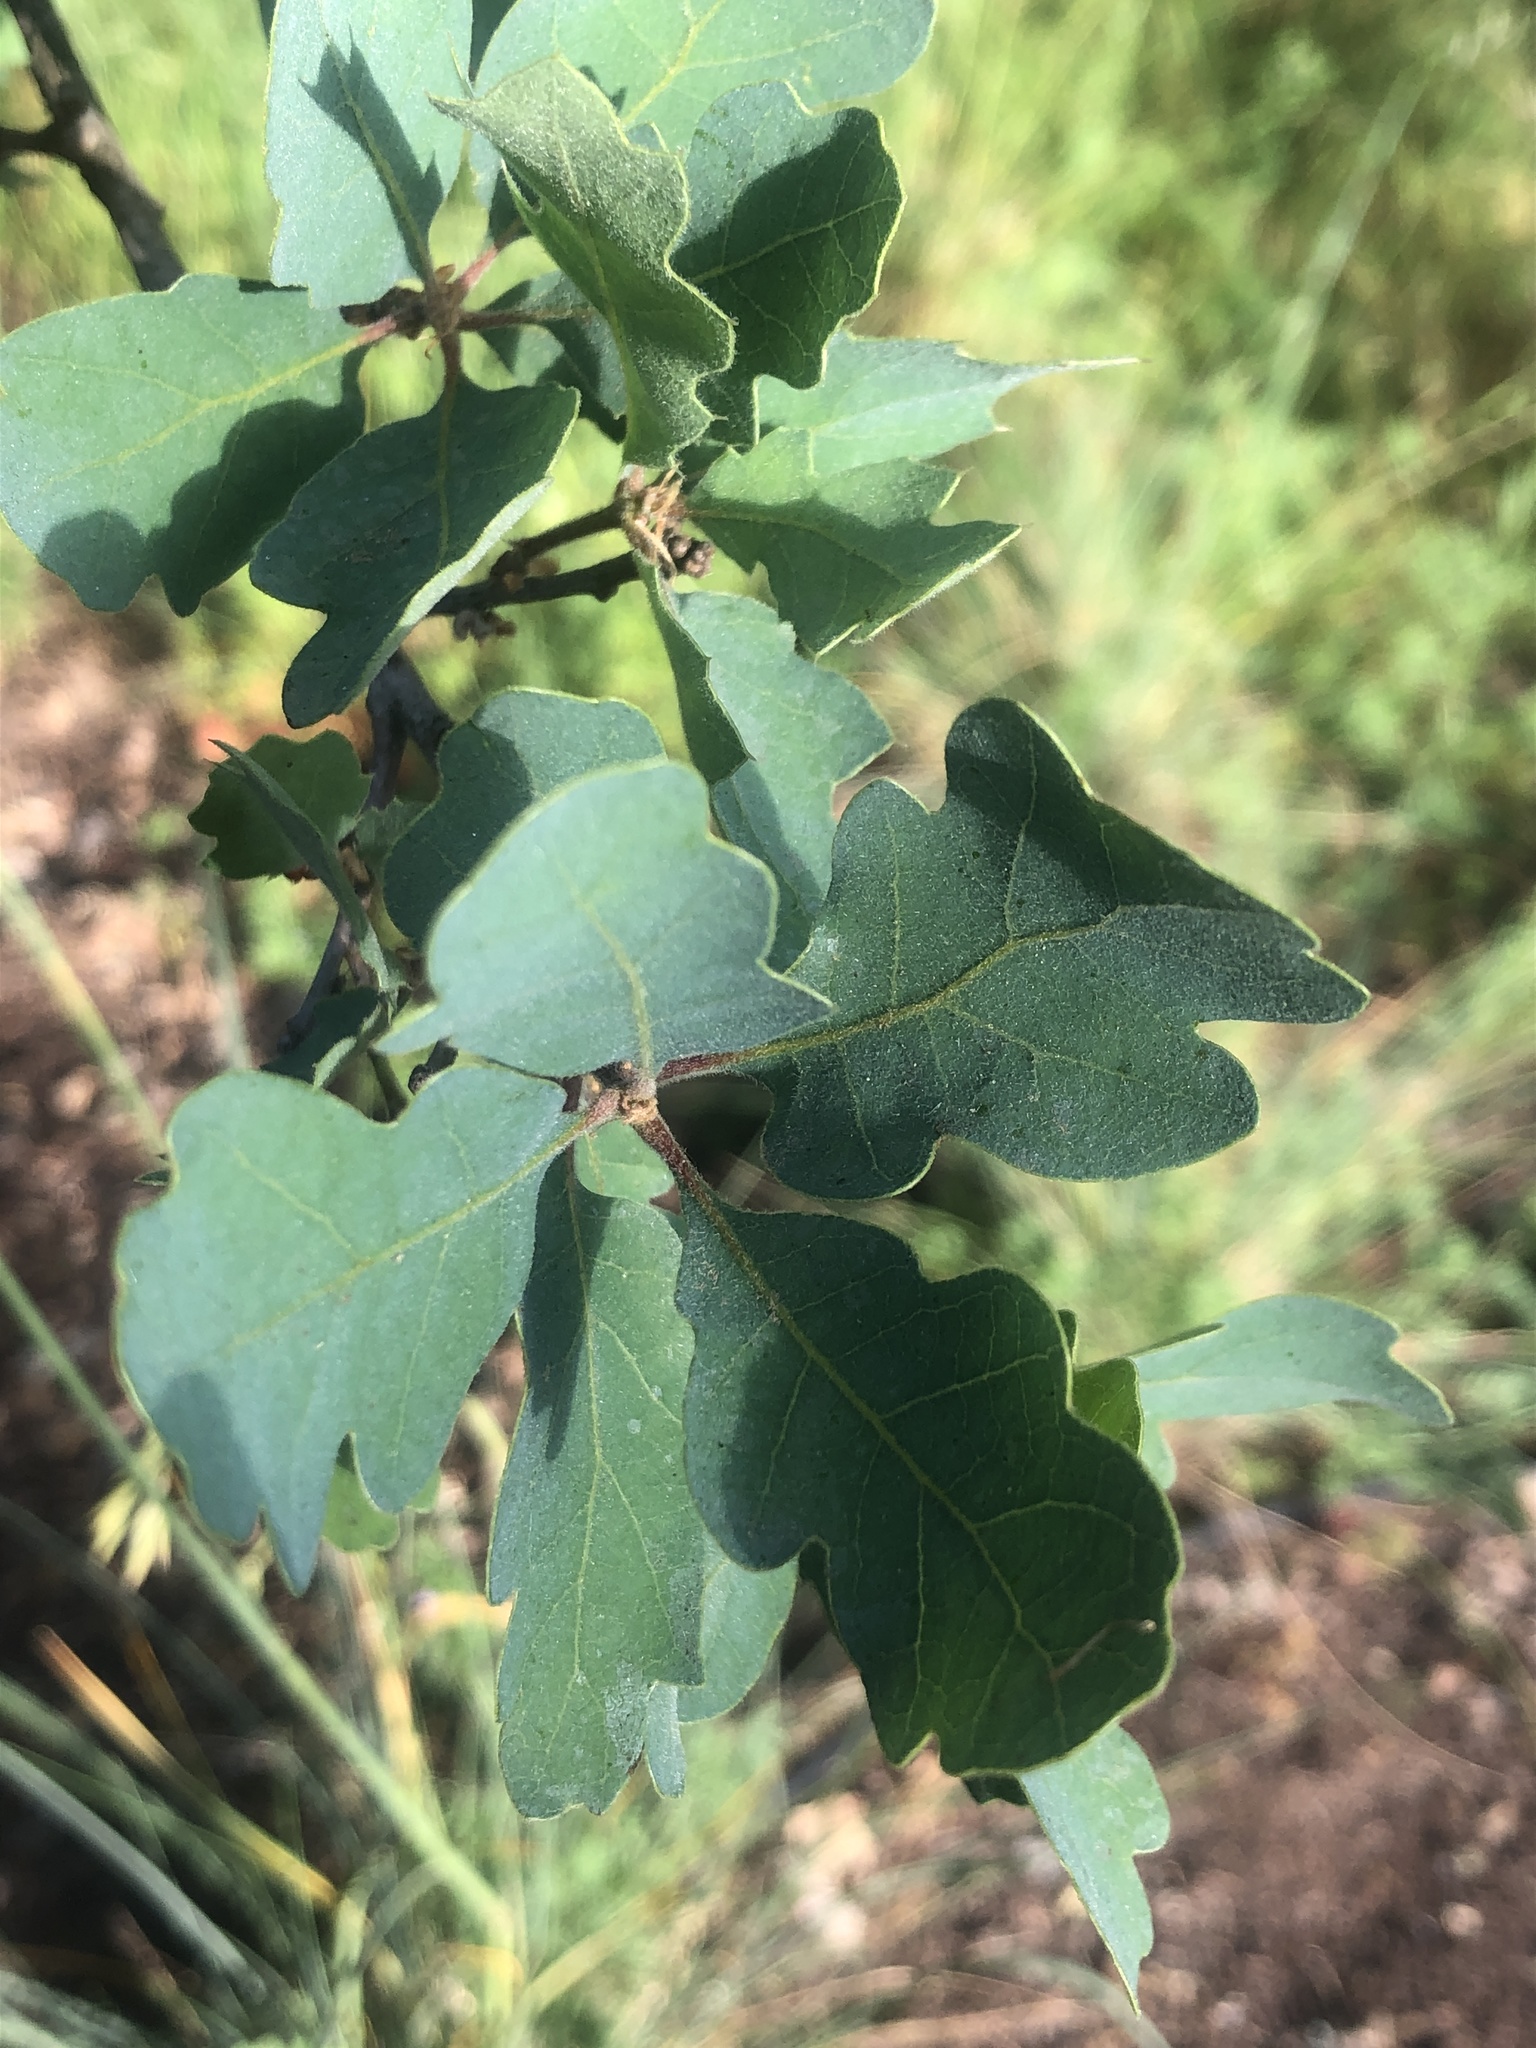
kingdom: Plantae
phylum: Tracheophyta
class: Magnoliopsida
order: Fagales
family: Fagaceae
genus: Quercus
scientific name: Quercus douglasii
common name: Blue oak
